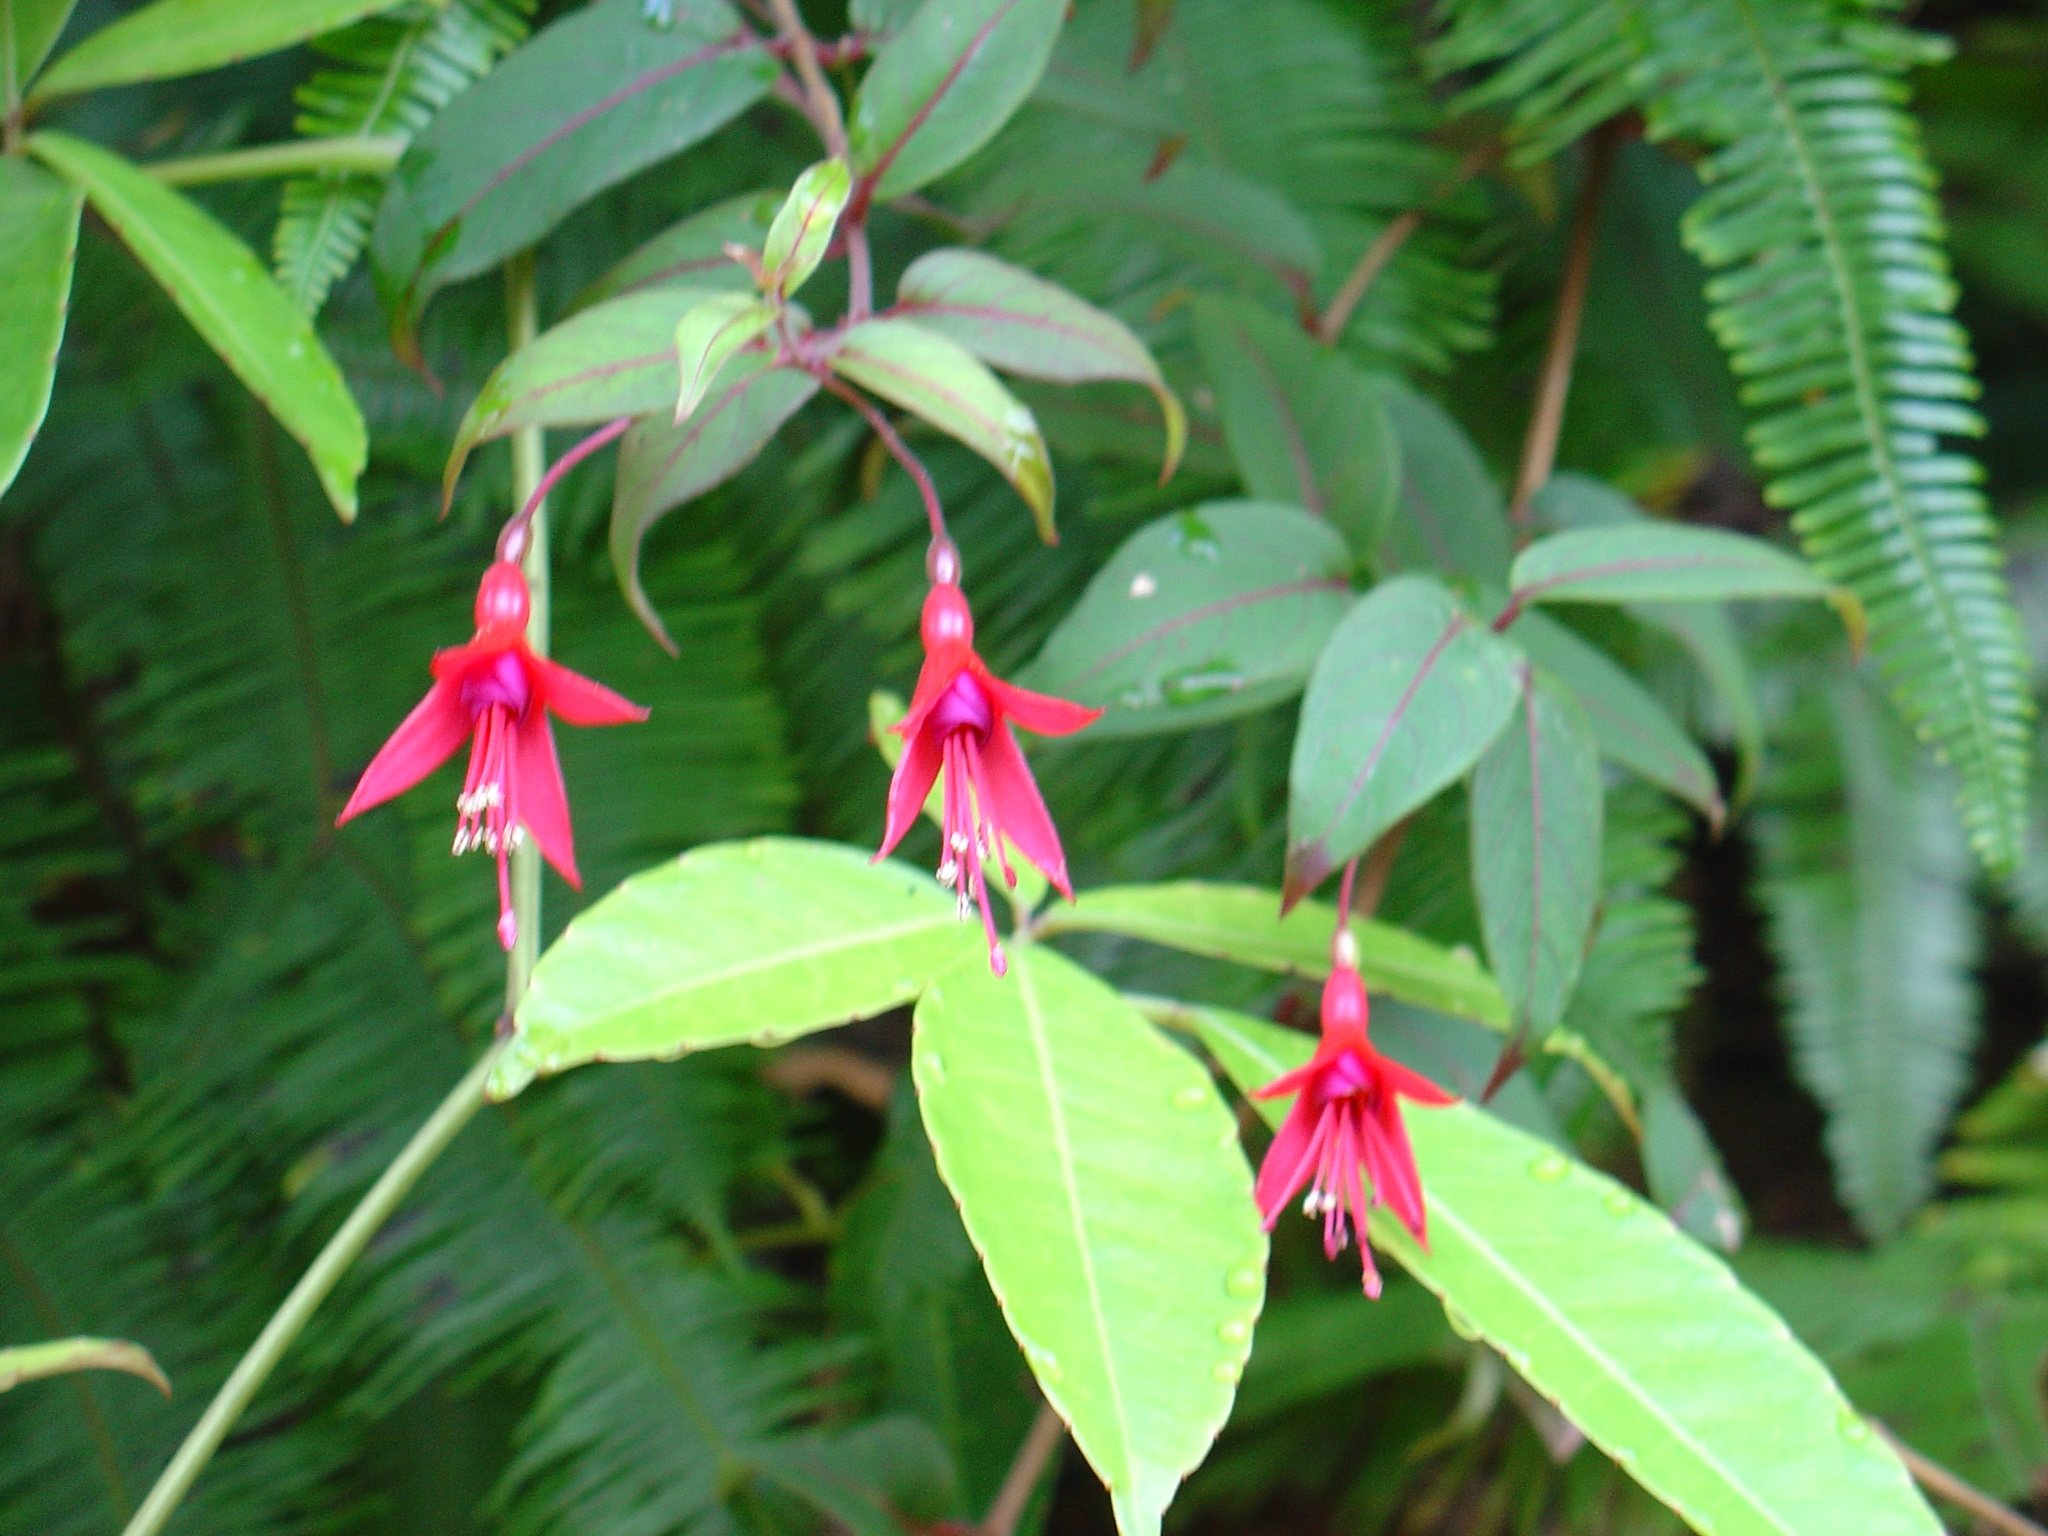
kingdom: Plantae
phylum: Tracheophyta
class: Magnoliopsida
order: Myrtales
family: Onagraceae
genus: Fuchsia
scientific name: Fuchsia magellanica
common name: Hardy fuchsia
